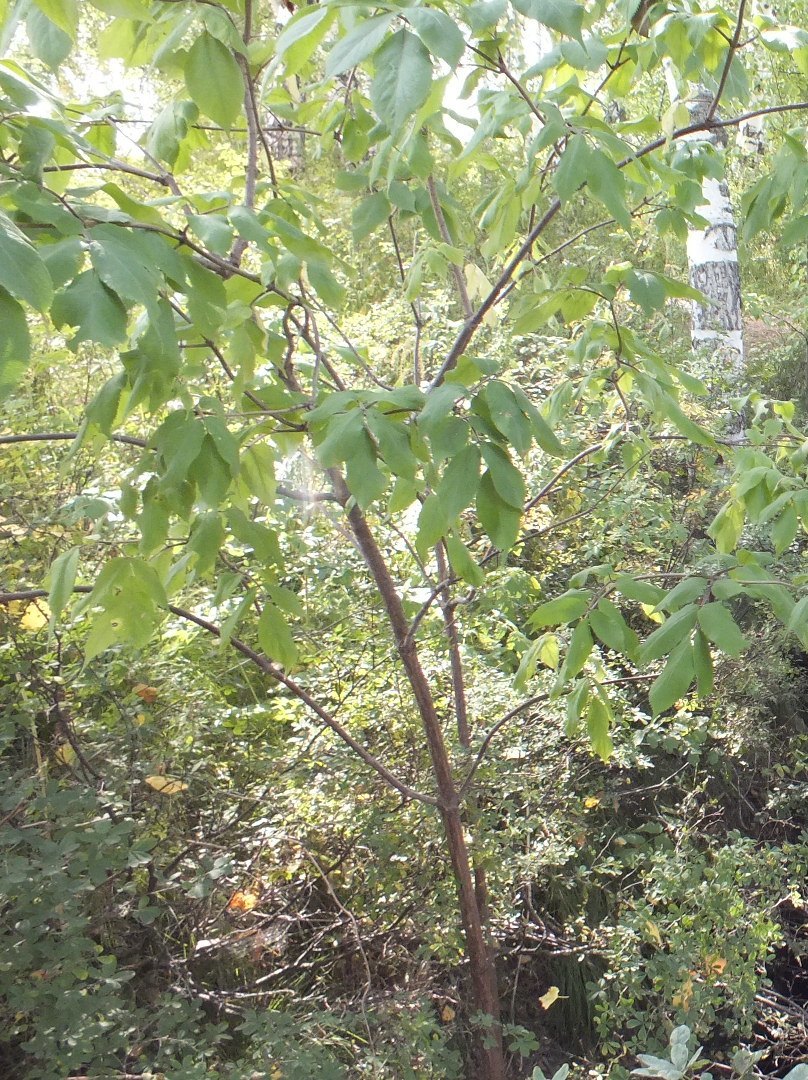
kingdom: Plantae
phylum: Tracheophyta
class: Magnoliopsida
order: Dipsacales
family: Viburnaceae
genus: Sambucus
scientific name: Sambucus sibirica
